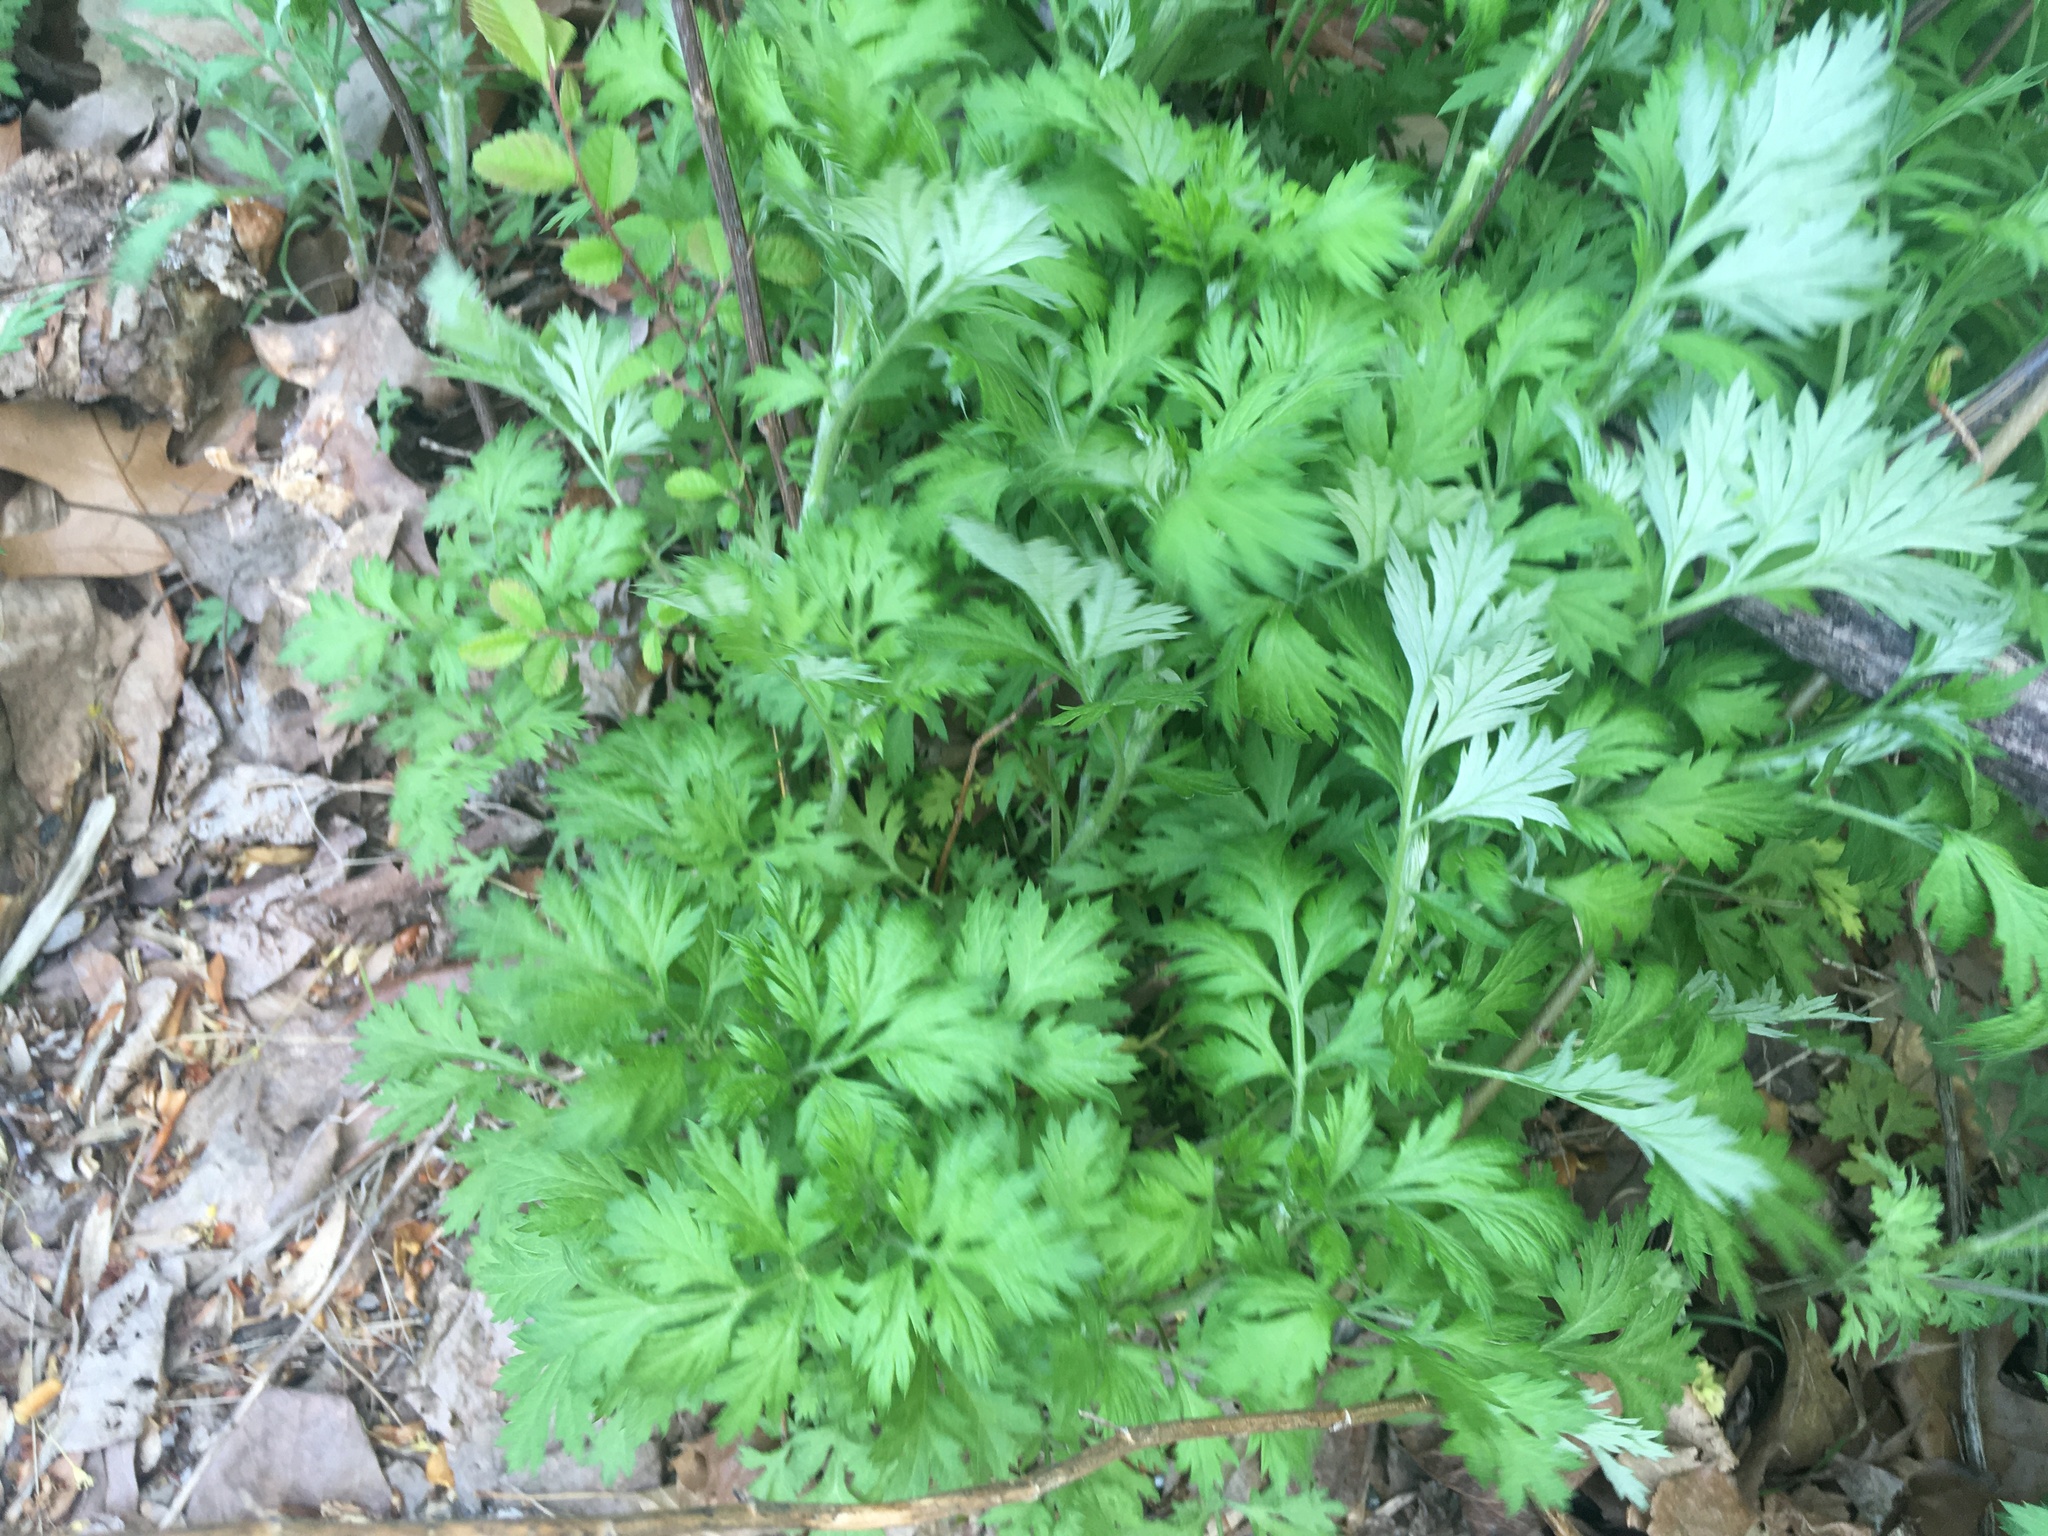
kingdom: Plantae
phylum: Tracheophyta
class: Magnoliopsida
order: Asterales
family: Asteraceae
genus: Artemisia
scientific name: Artemisia vulgaris
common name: Mugwort
